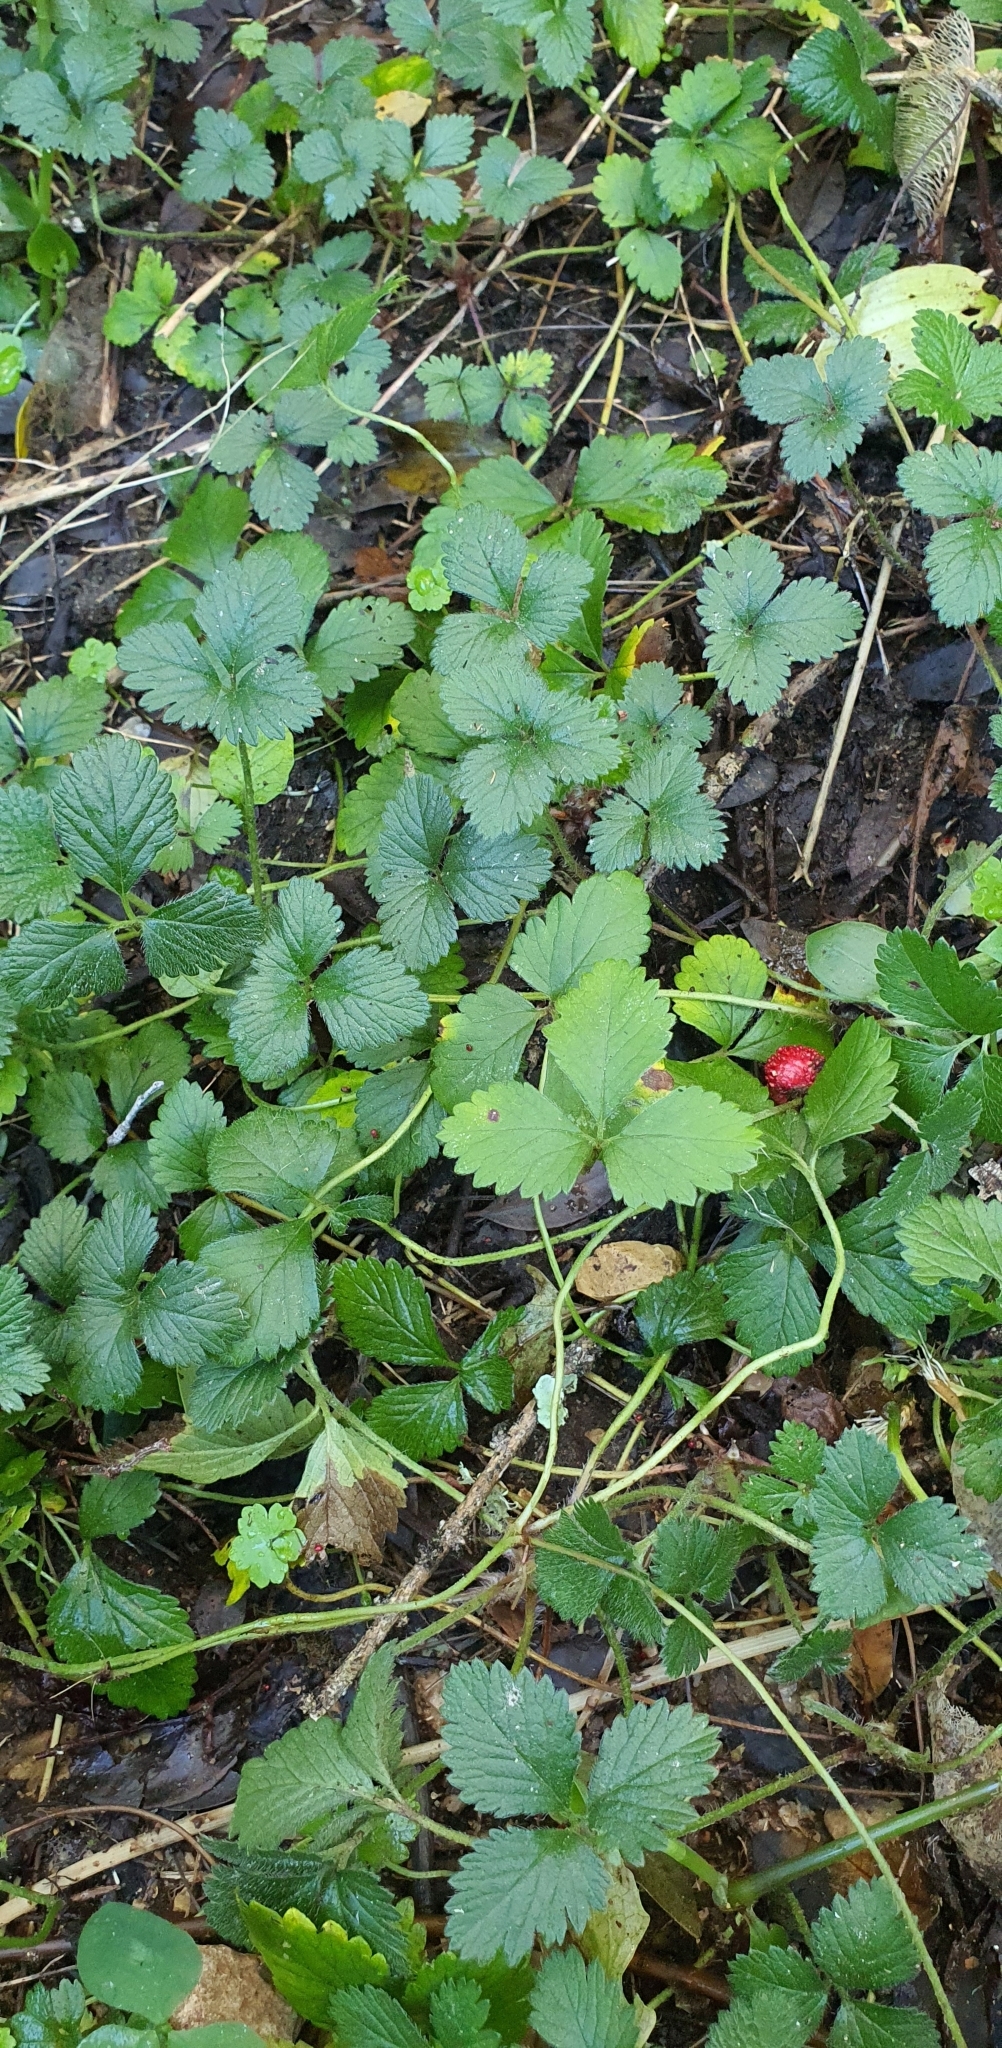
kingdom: Plantae
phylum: Tracheophyta
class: Magnoliopsida
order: Rosales
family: Rosaceae
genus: Potentilla
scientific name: Potentilla indica
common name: Yellow-flowered strawberry
